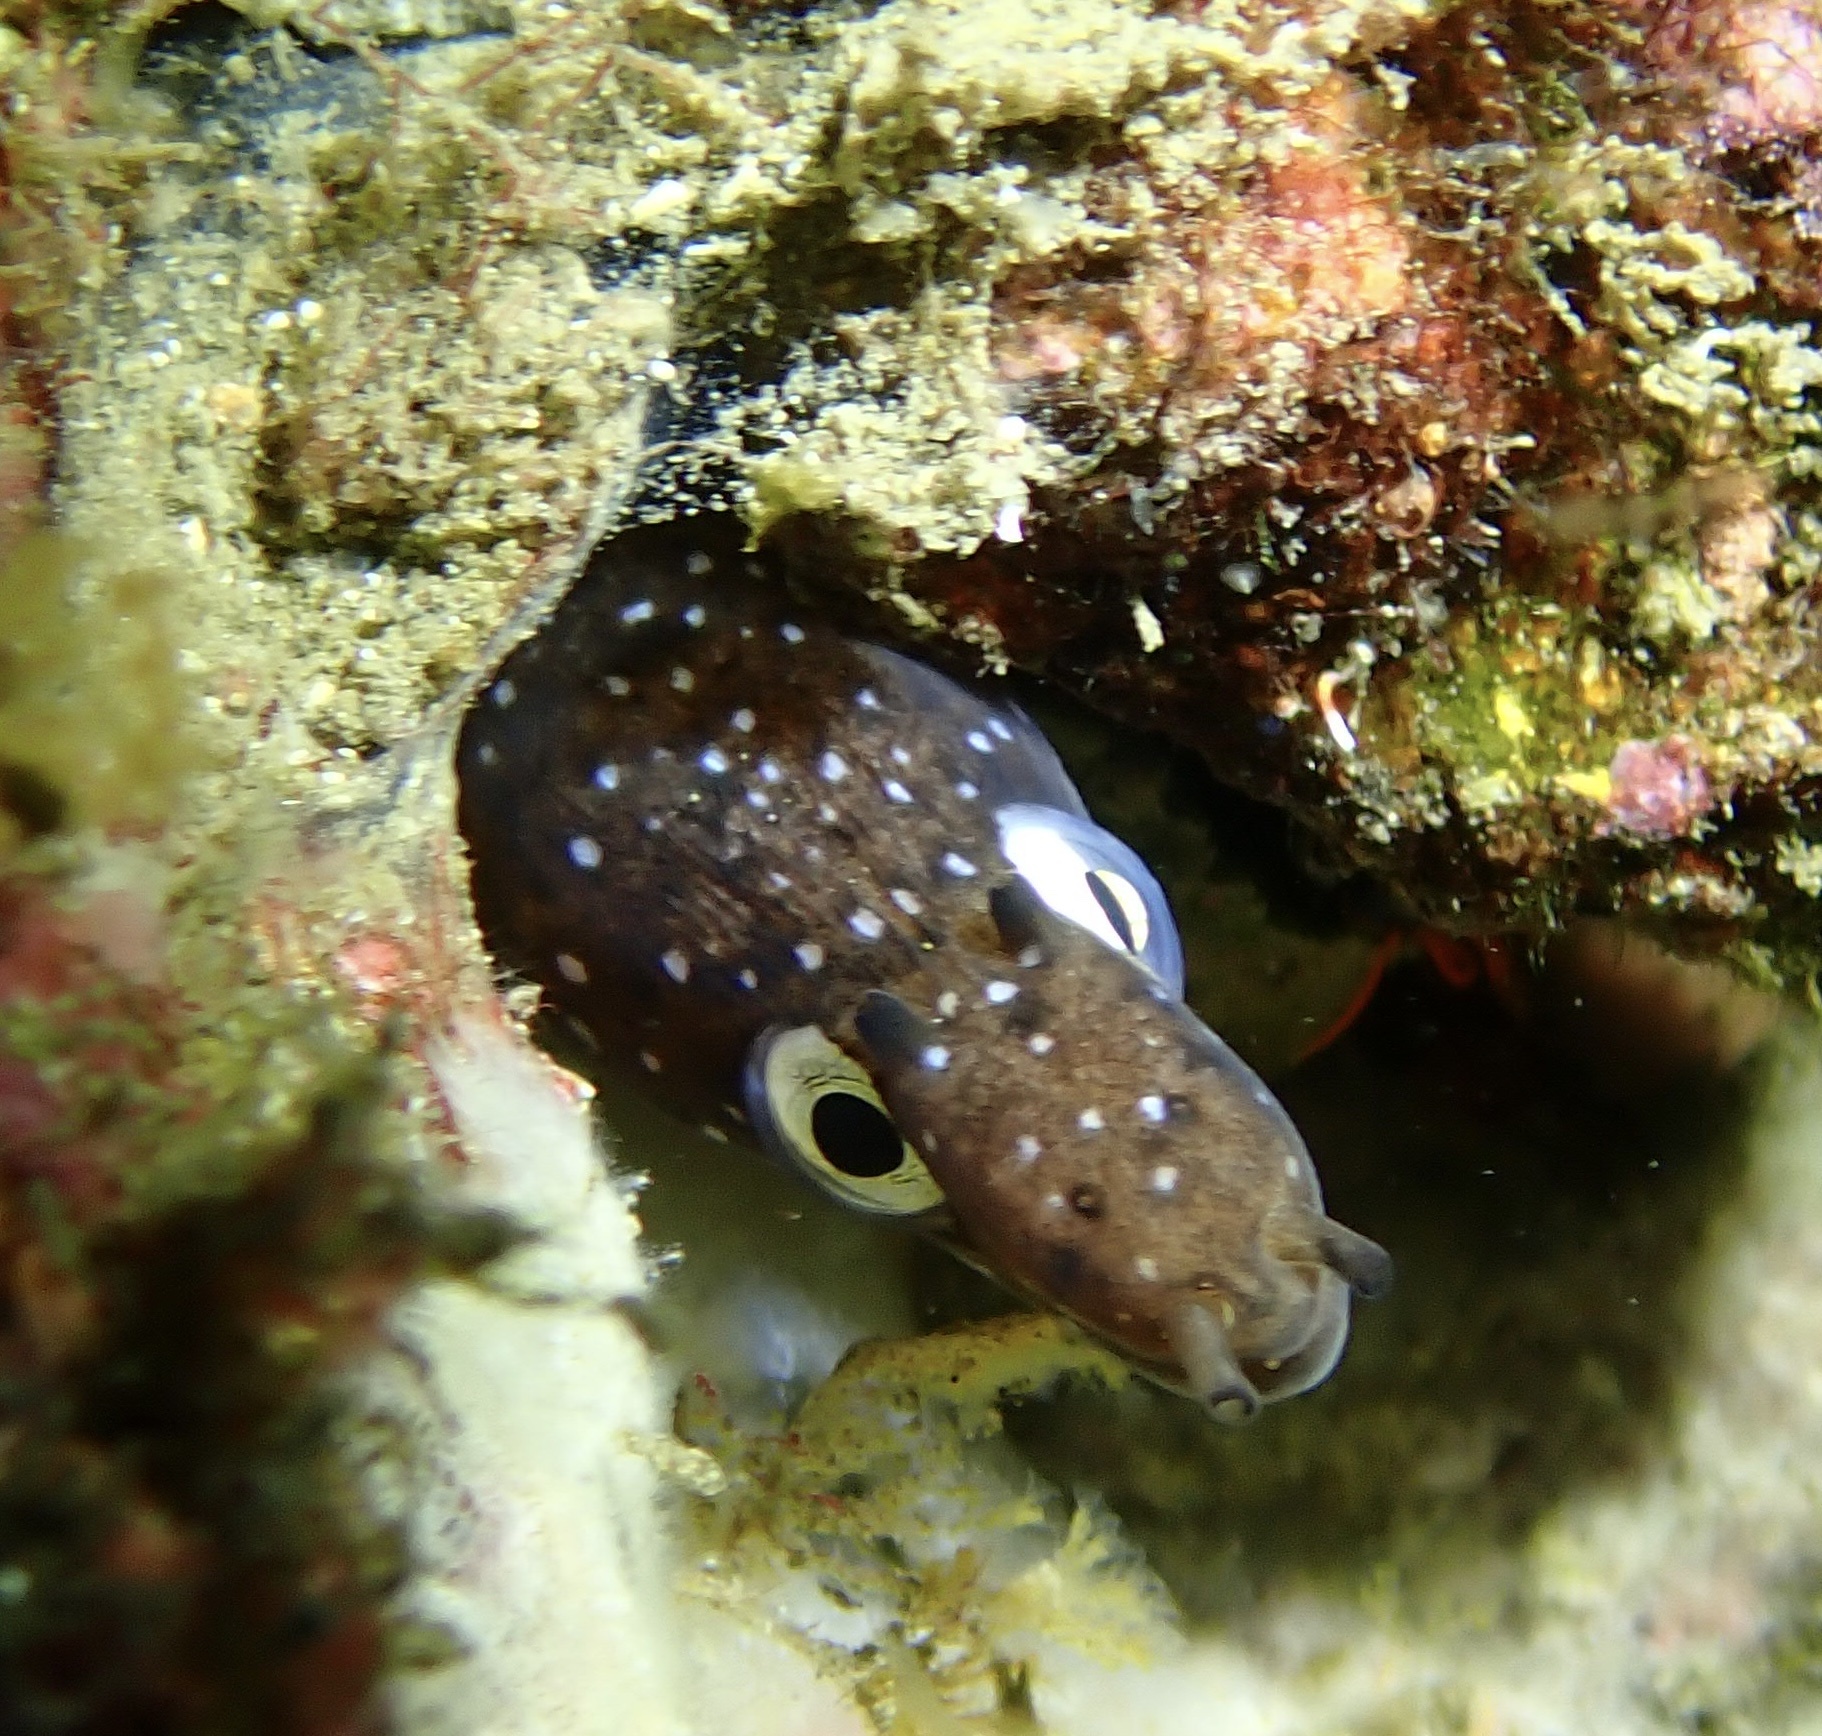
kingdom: Animalia
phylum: Chordata
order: Anguilliformes
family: Muraenidae
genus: Muraena
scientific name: Muraena augusti
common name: Mediterranean moray
